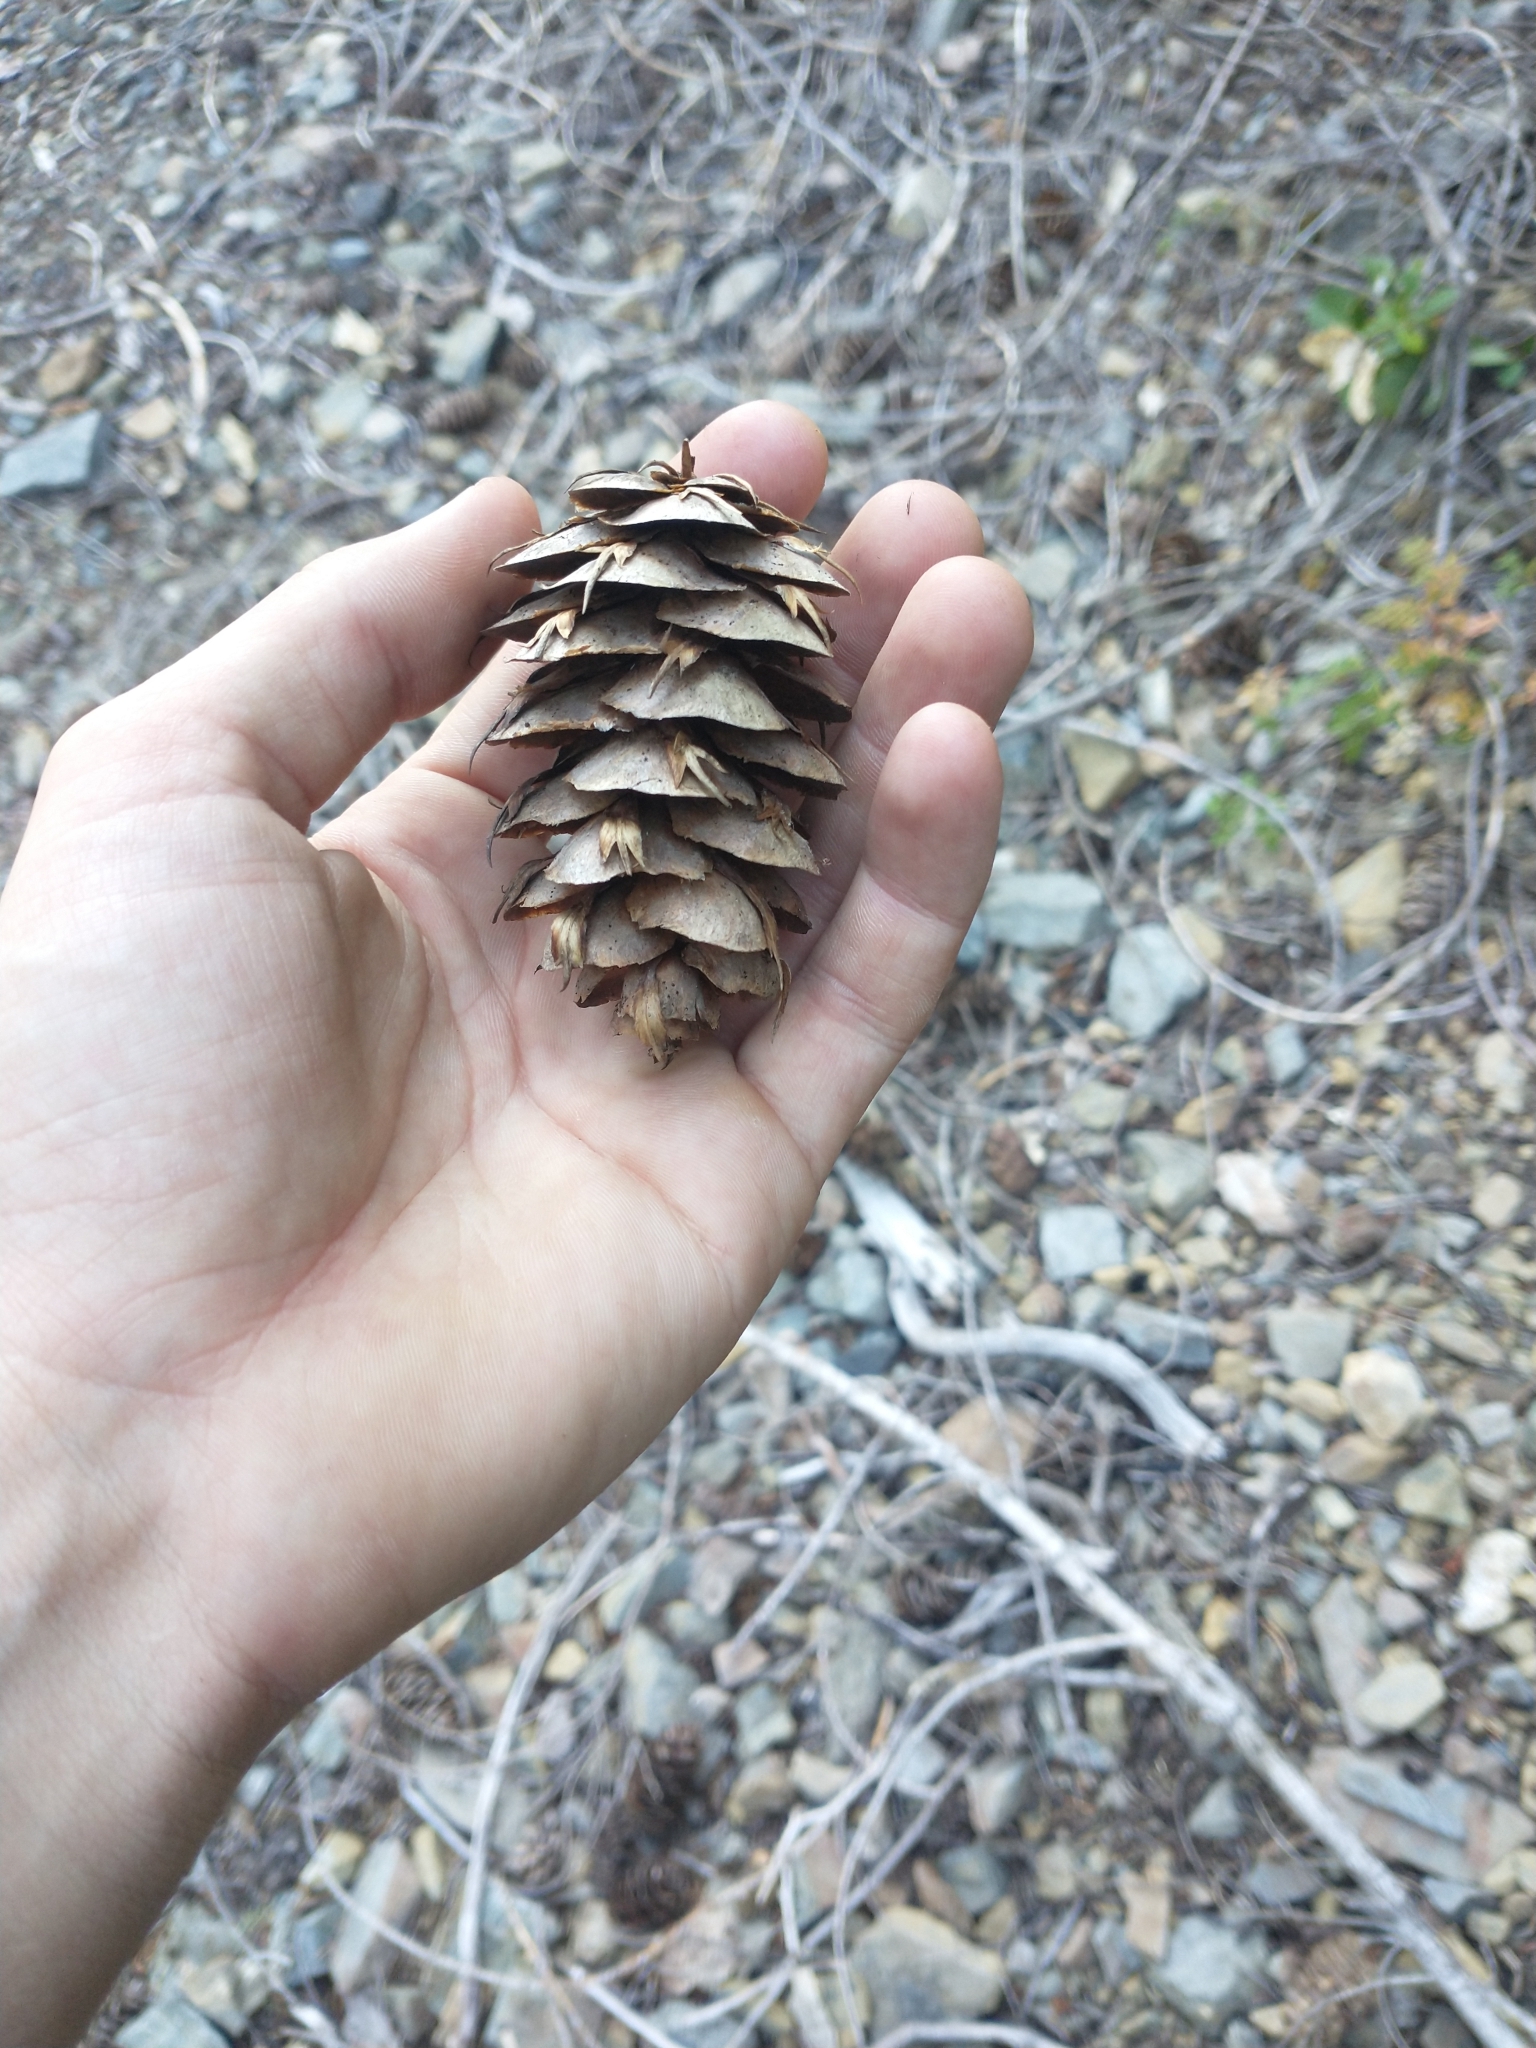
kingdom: Plantae
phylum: Tracheophyta
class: Pinopsida
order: Pinales
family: Pinaceae
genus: Pseudotsuga
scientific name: Pseudotsuga menziesii
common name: Douglas fir
